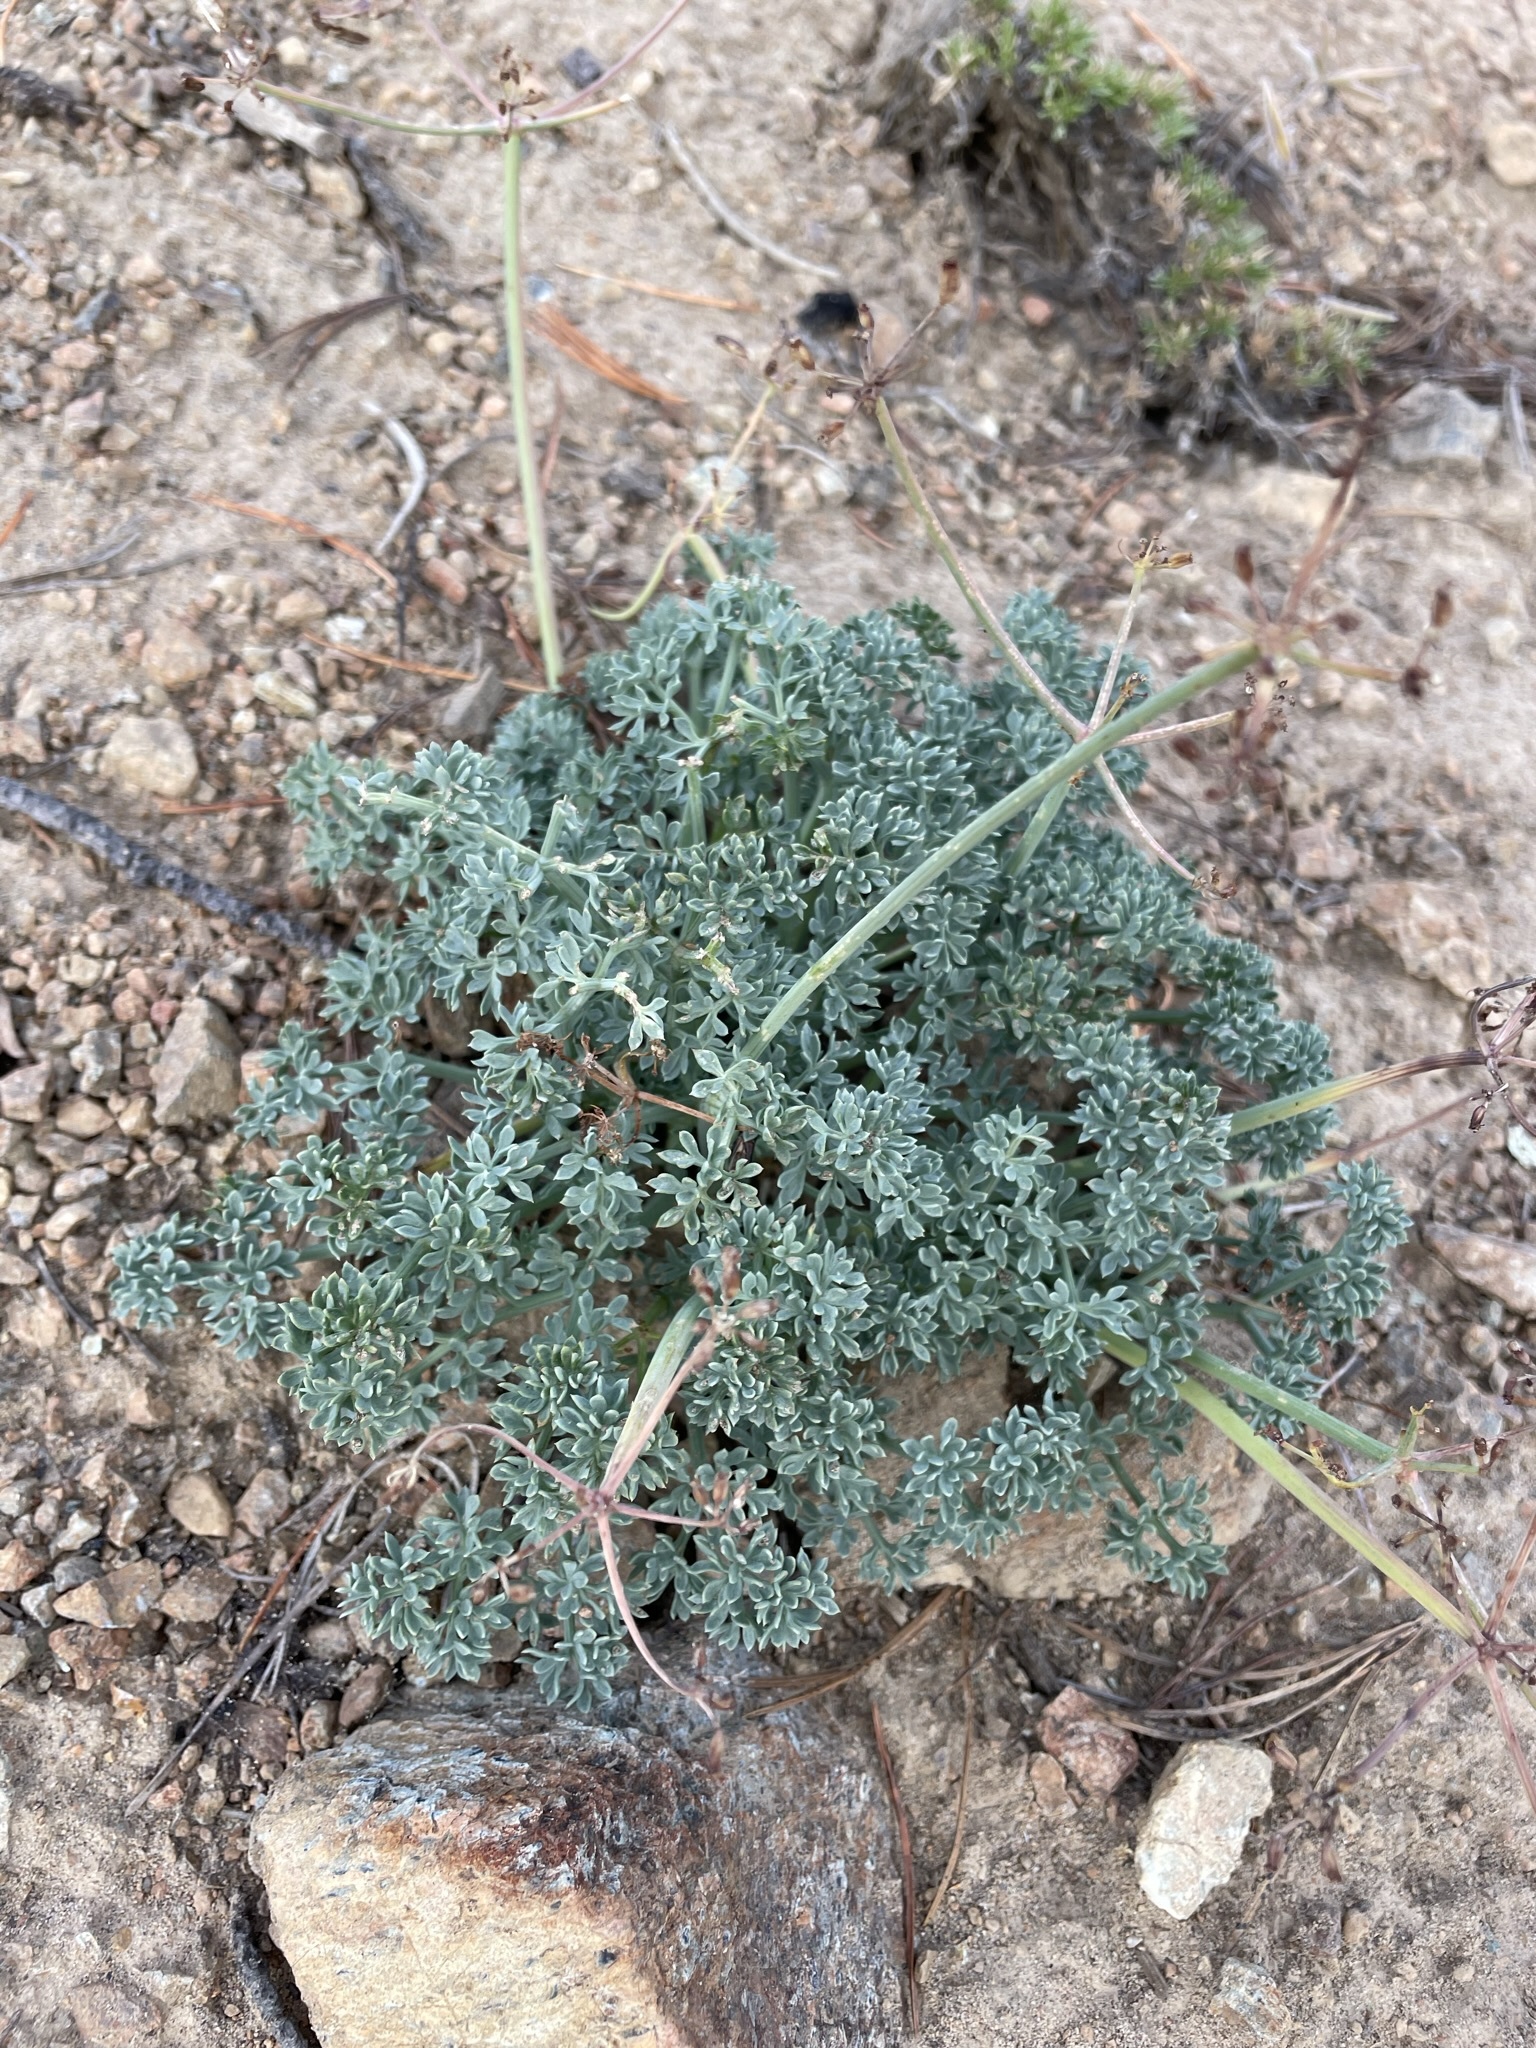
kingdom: Plantae
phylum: Tracheophyta
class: Magnoliopsida
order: Apiales
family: Apiaceae
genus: Lomatium
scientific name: Lomatium cuspidatum
